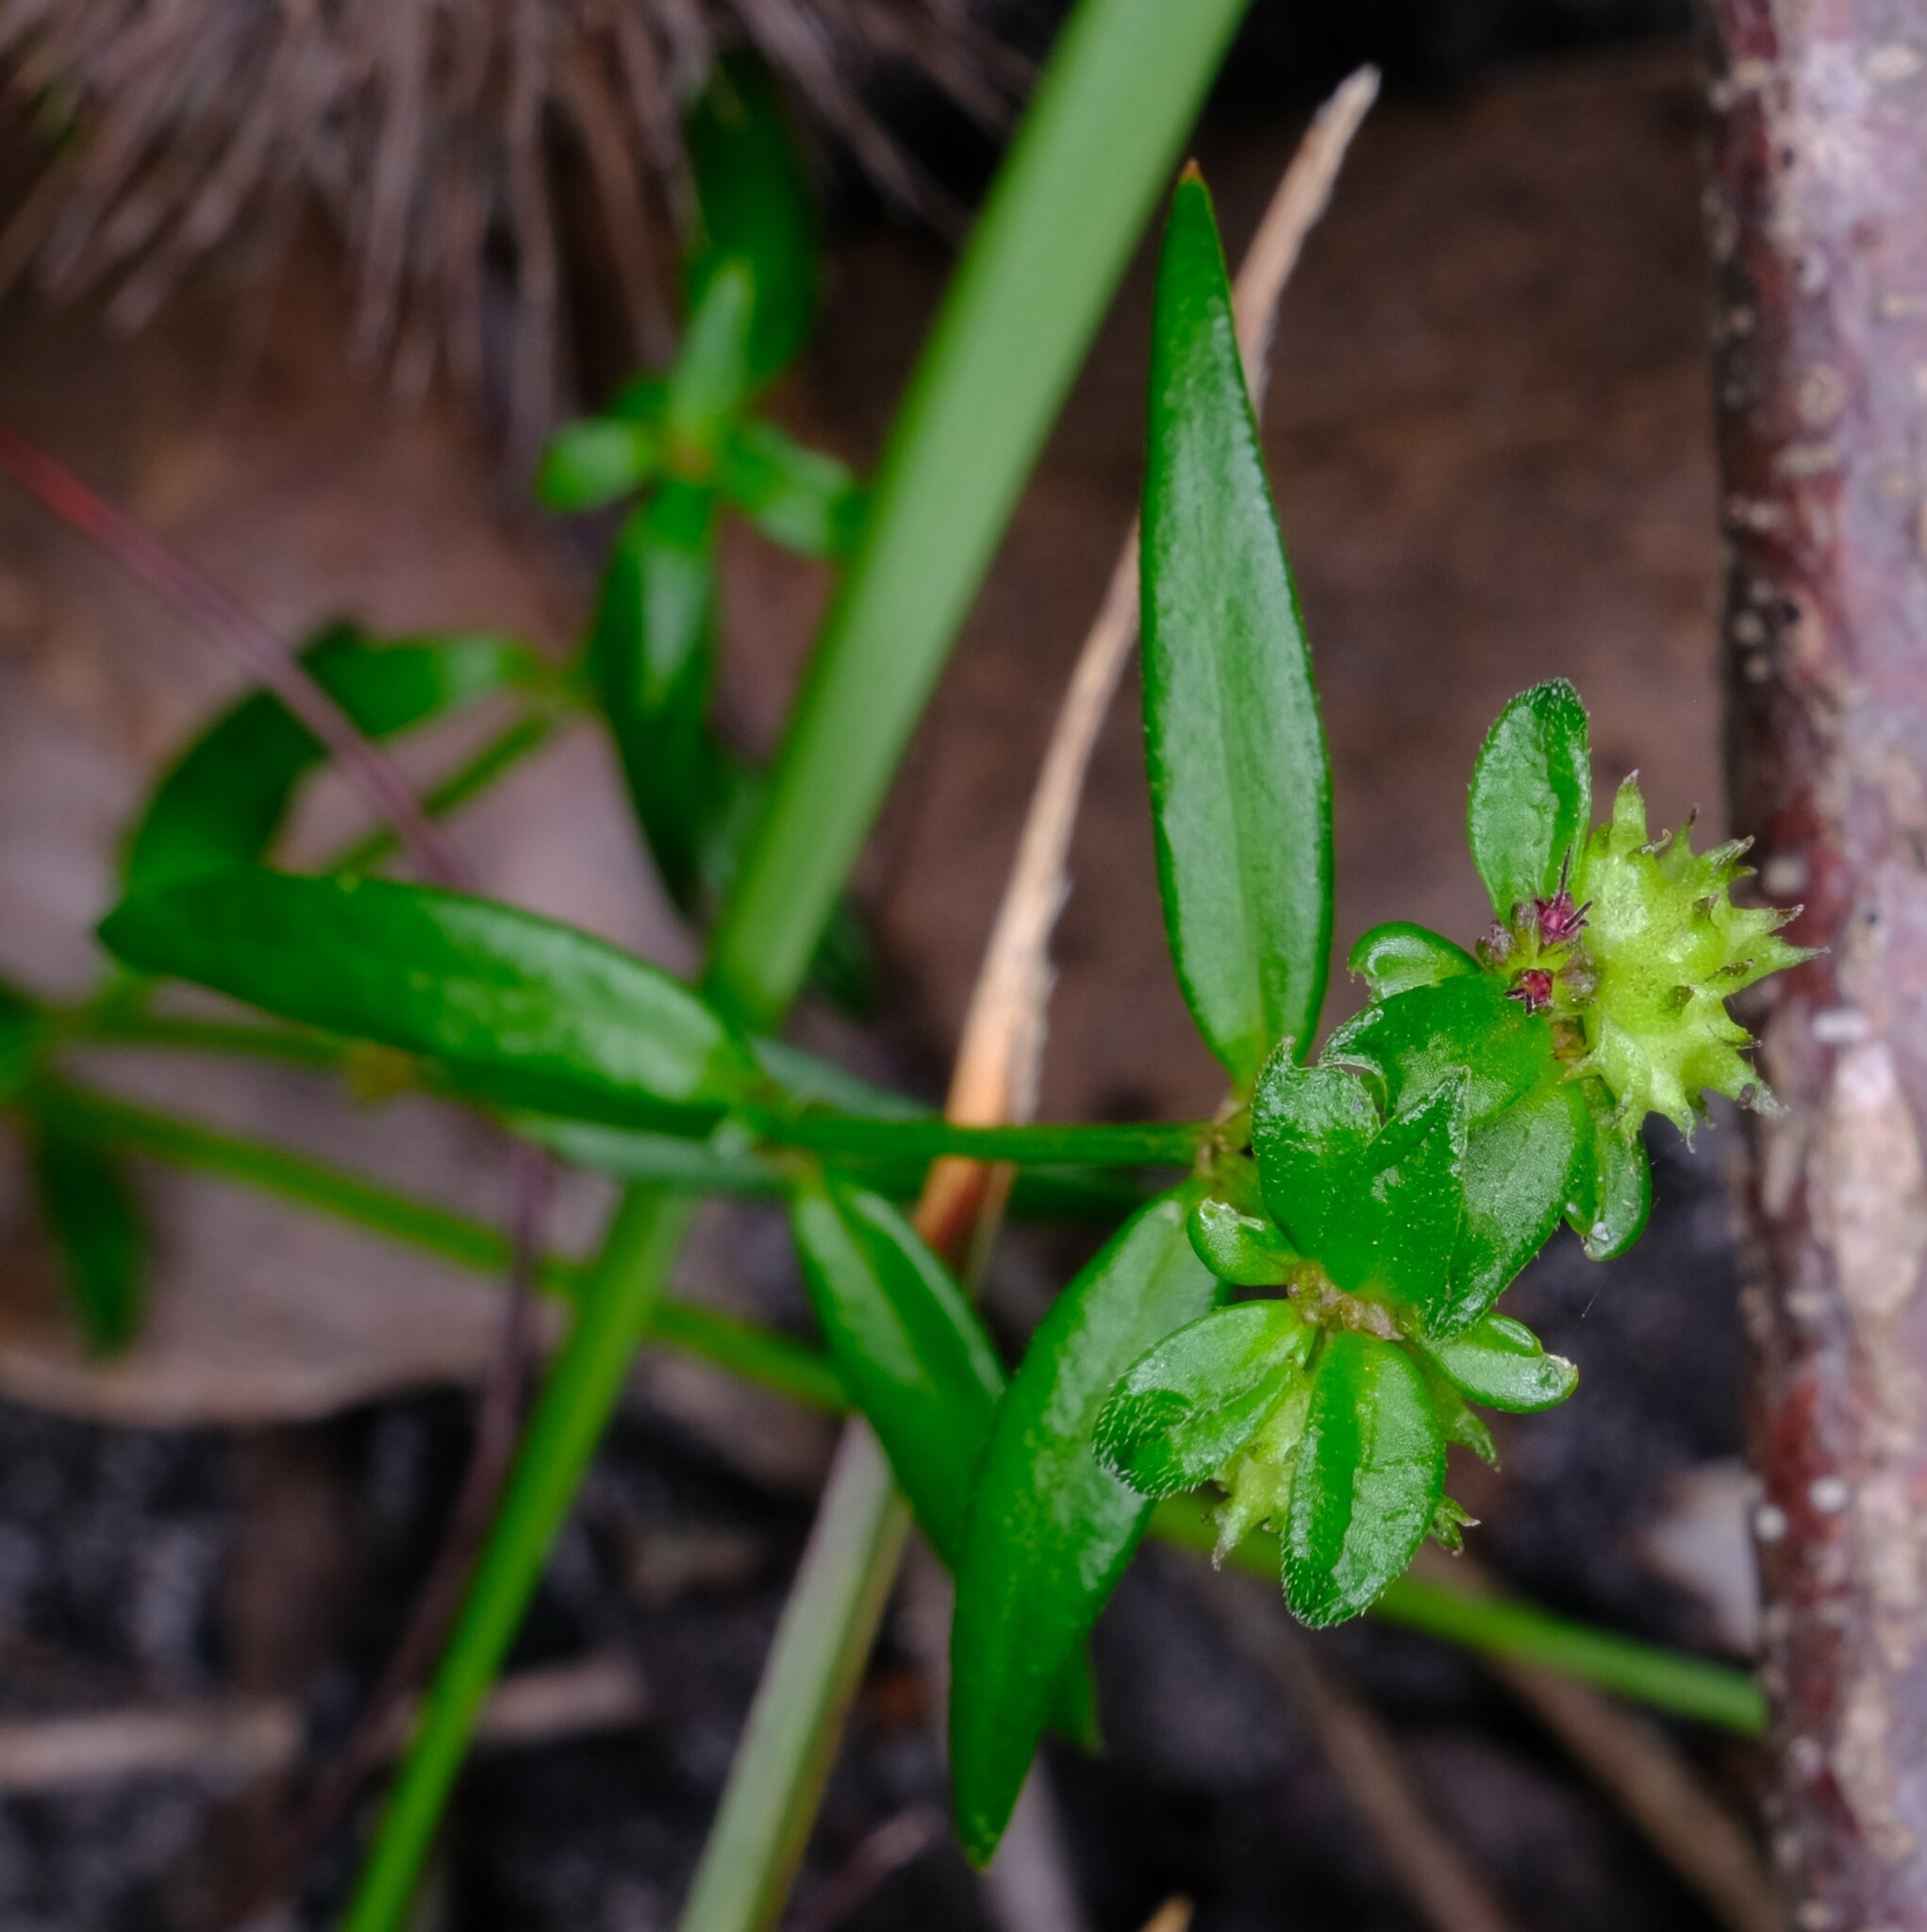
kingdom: Plantae
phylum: Tracheophyta
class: Magnoliopsida
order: Gentianales
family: Rubiaceae
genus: Opercularia
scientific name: Opercularia varia
